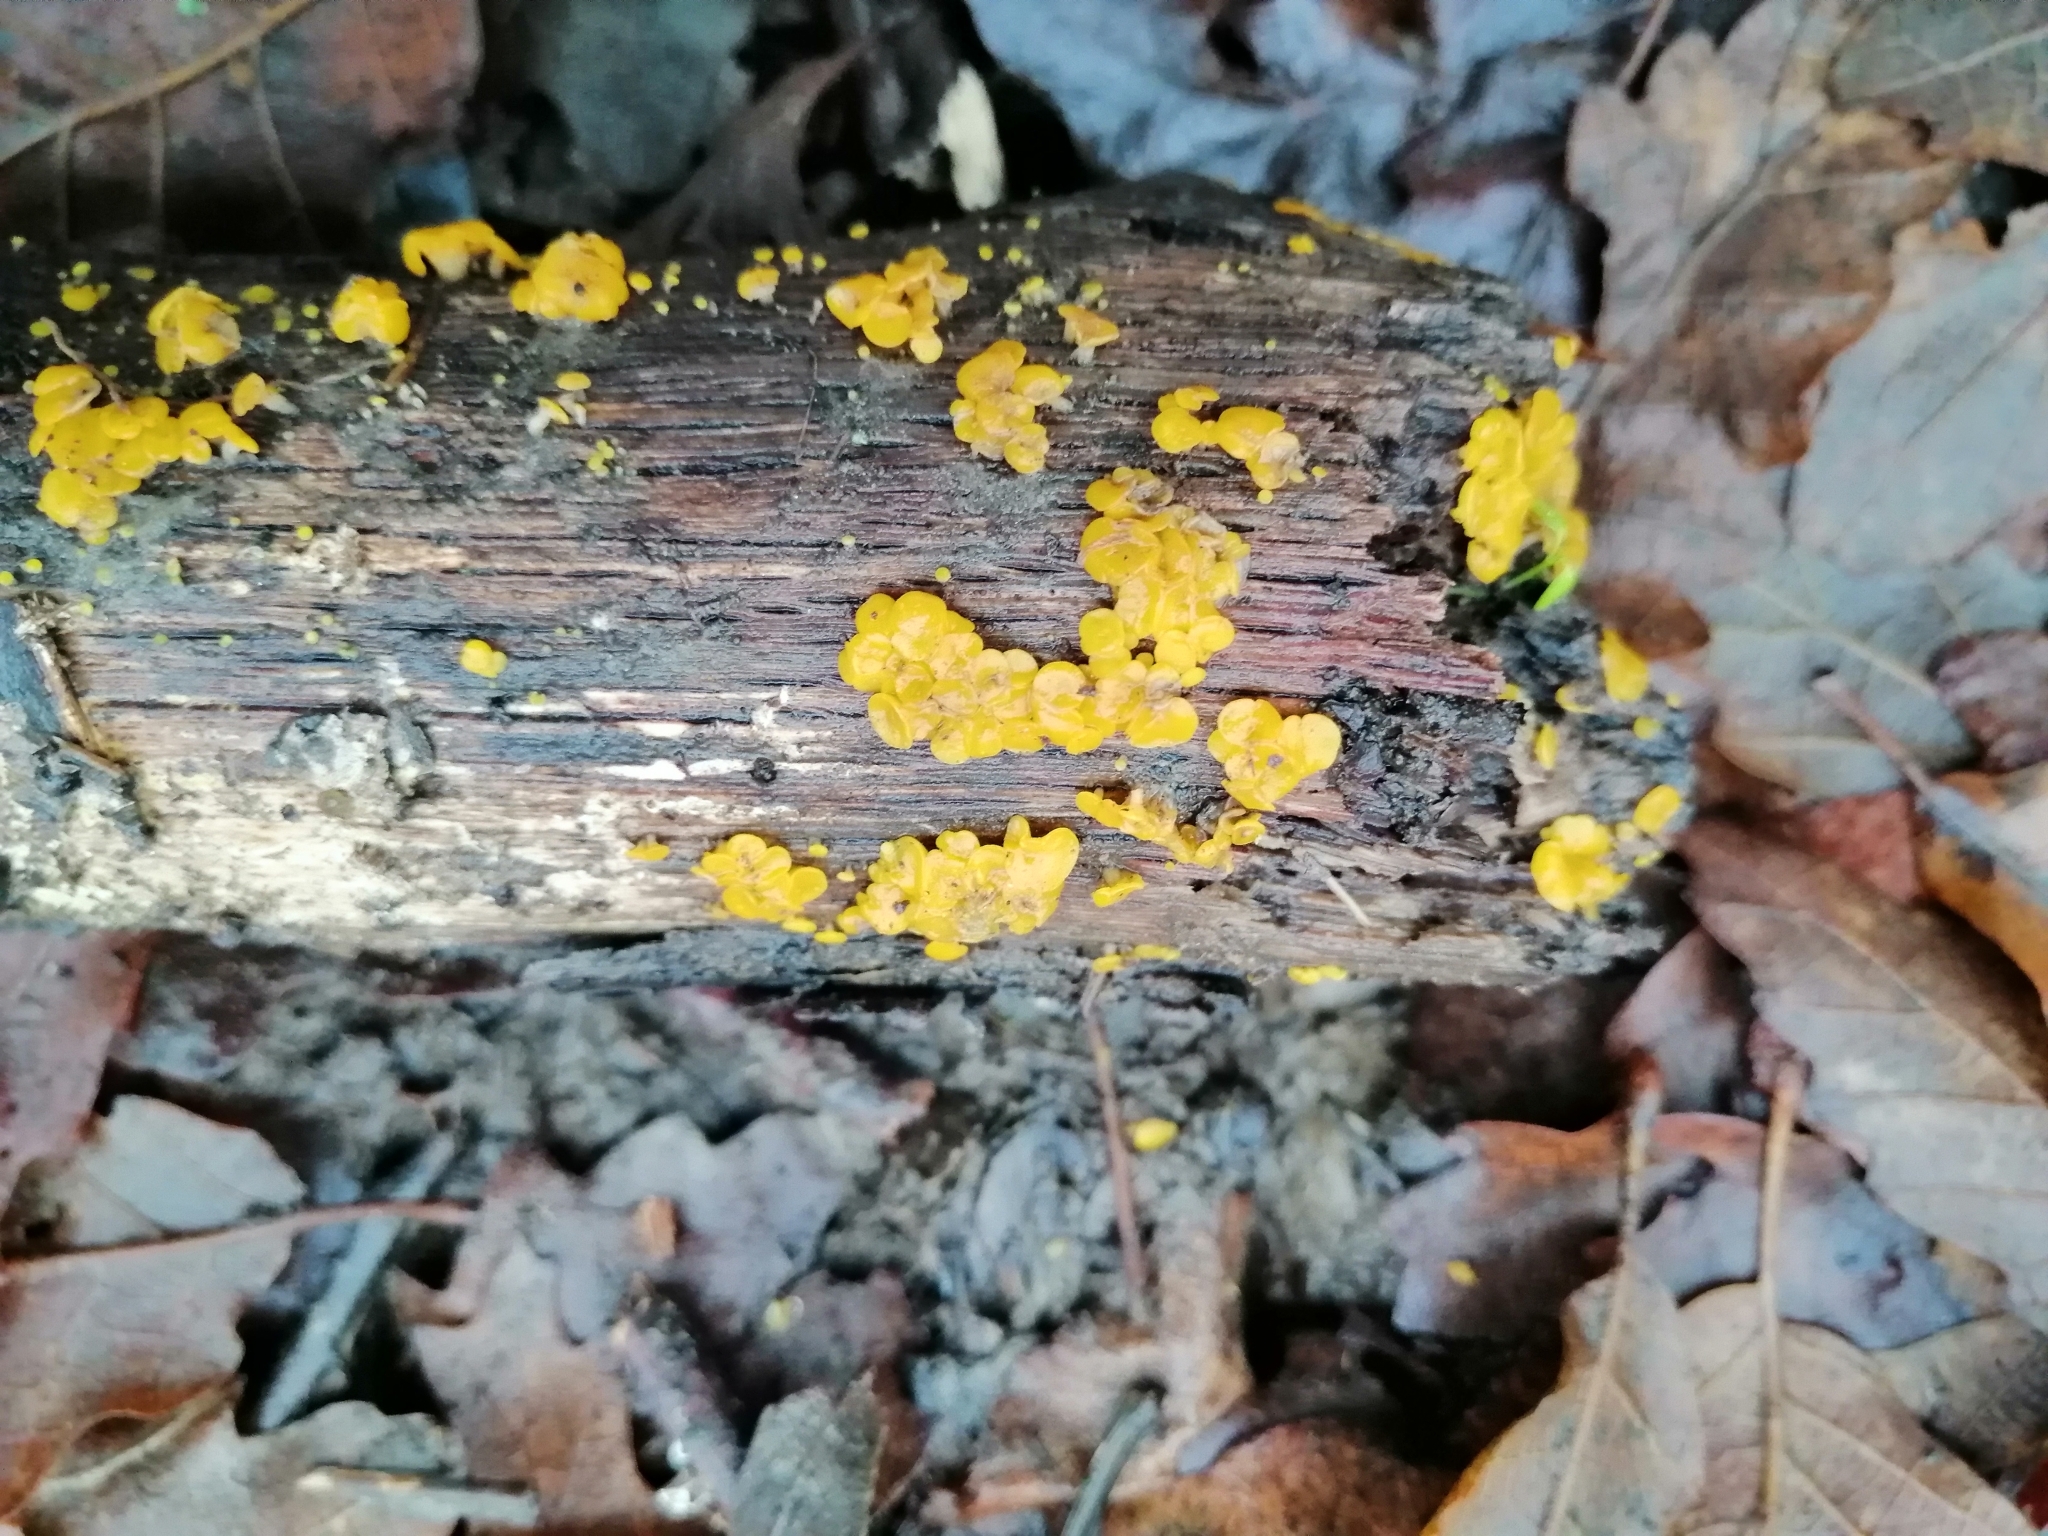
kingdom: Fungi
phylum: Ascomycota
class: Leotiomycetes
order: Helotiales
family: Pezizellaceae
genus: Calycina
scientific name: Calycina citrina
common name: Yellow fairy cups
